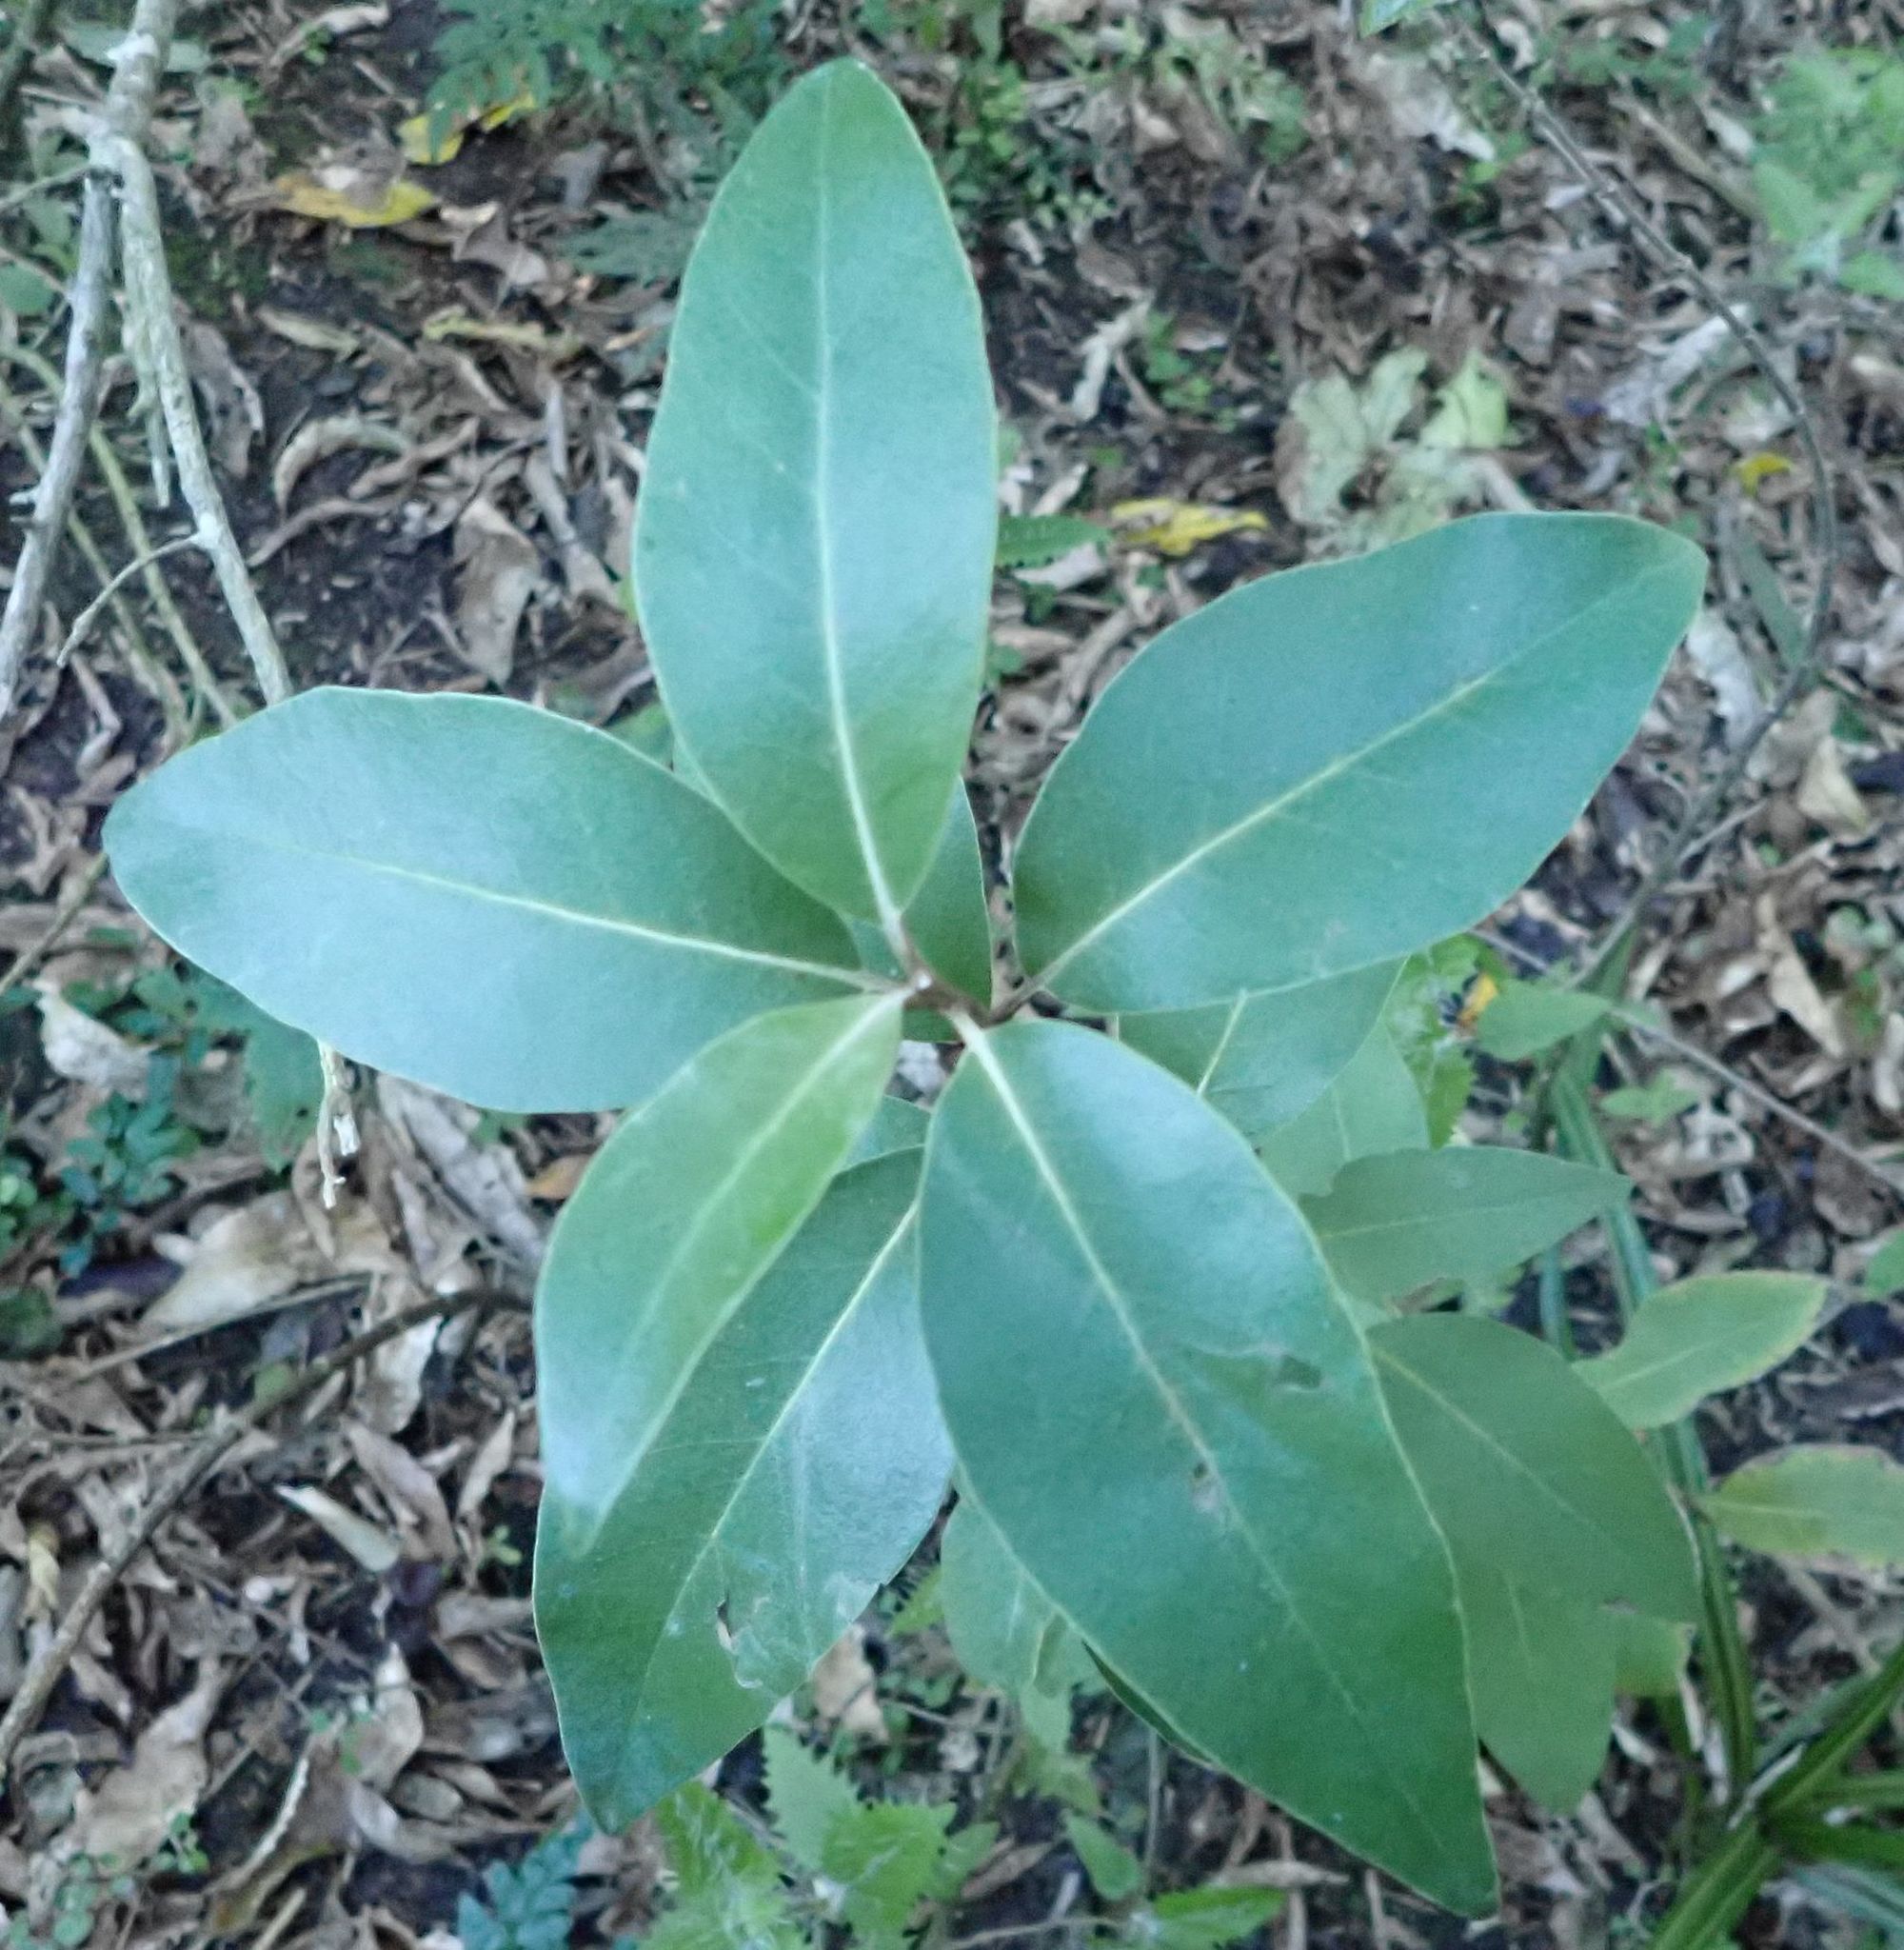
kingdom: Plantae
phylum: Tracheophyta
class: Magnoliopsida
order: Asterales
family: Asteraceae
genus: Olearia
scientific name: Olearia avicenniifolia
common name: Mangrove-leaf daisybush
